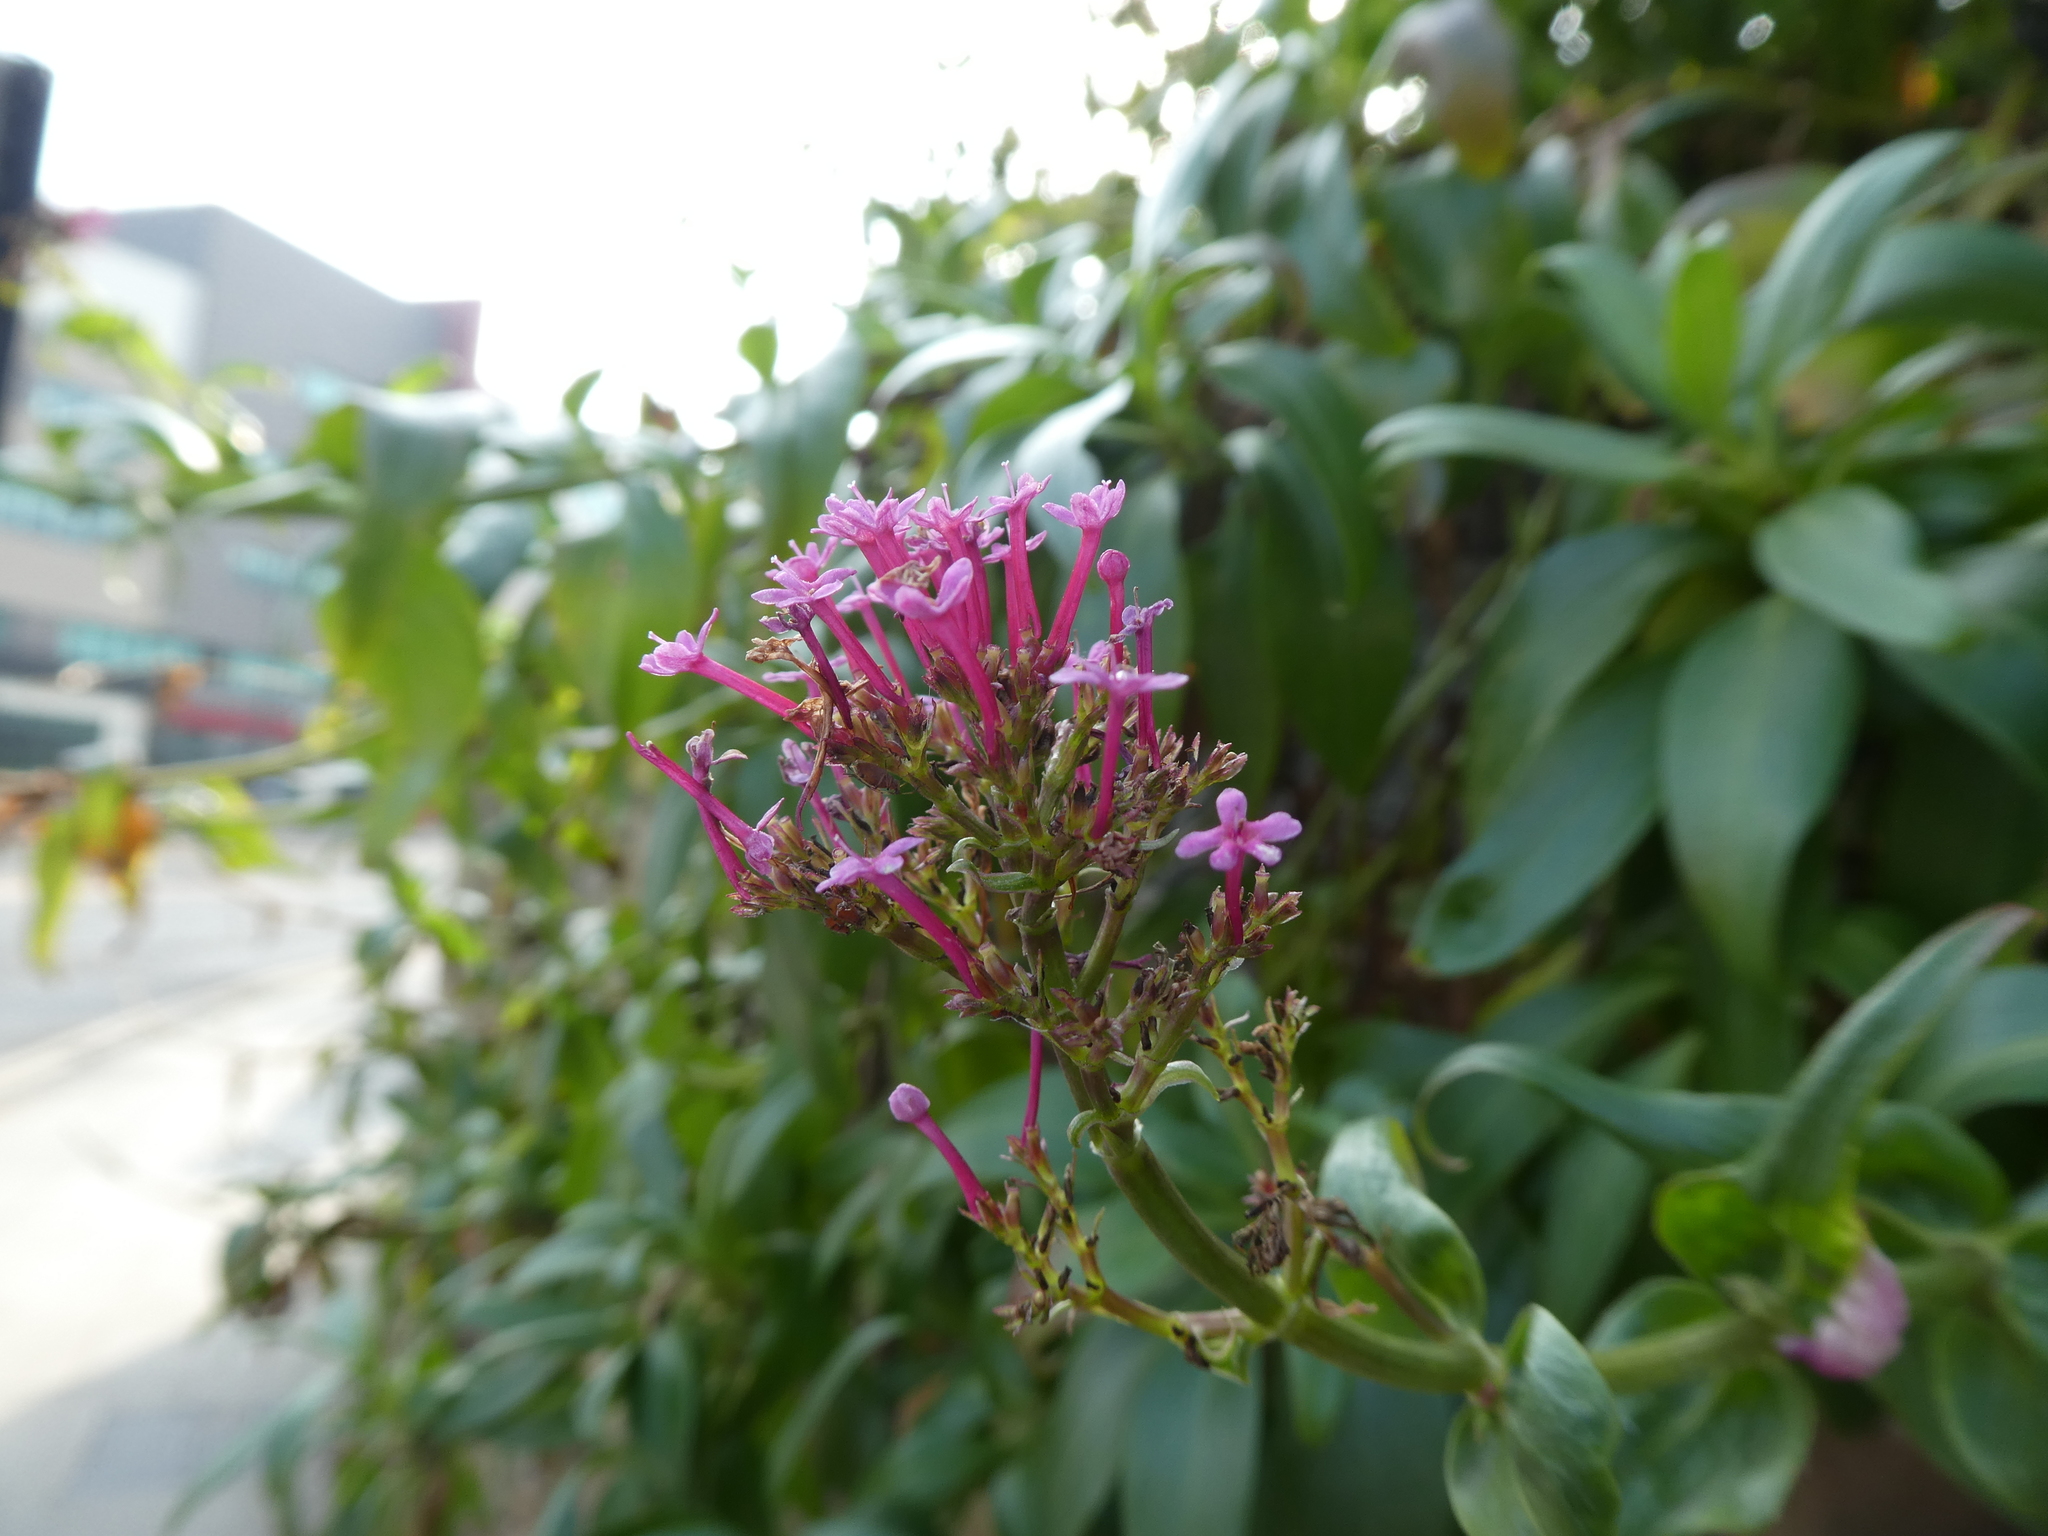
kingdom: Plantae
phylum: Tracheophyta
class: Magnoliopsida
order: Dipsacales
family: Caprifoliaceae
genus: Centranthus
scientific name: Centranthus ruber
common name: Red valerian
